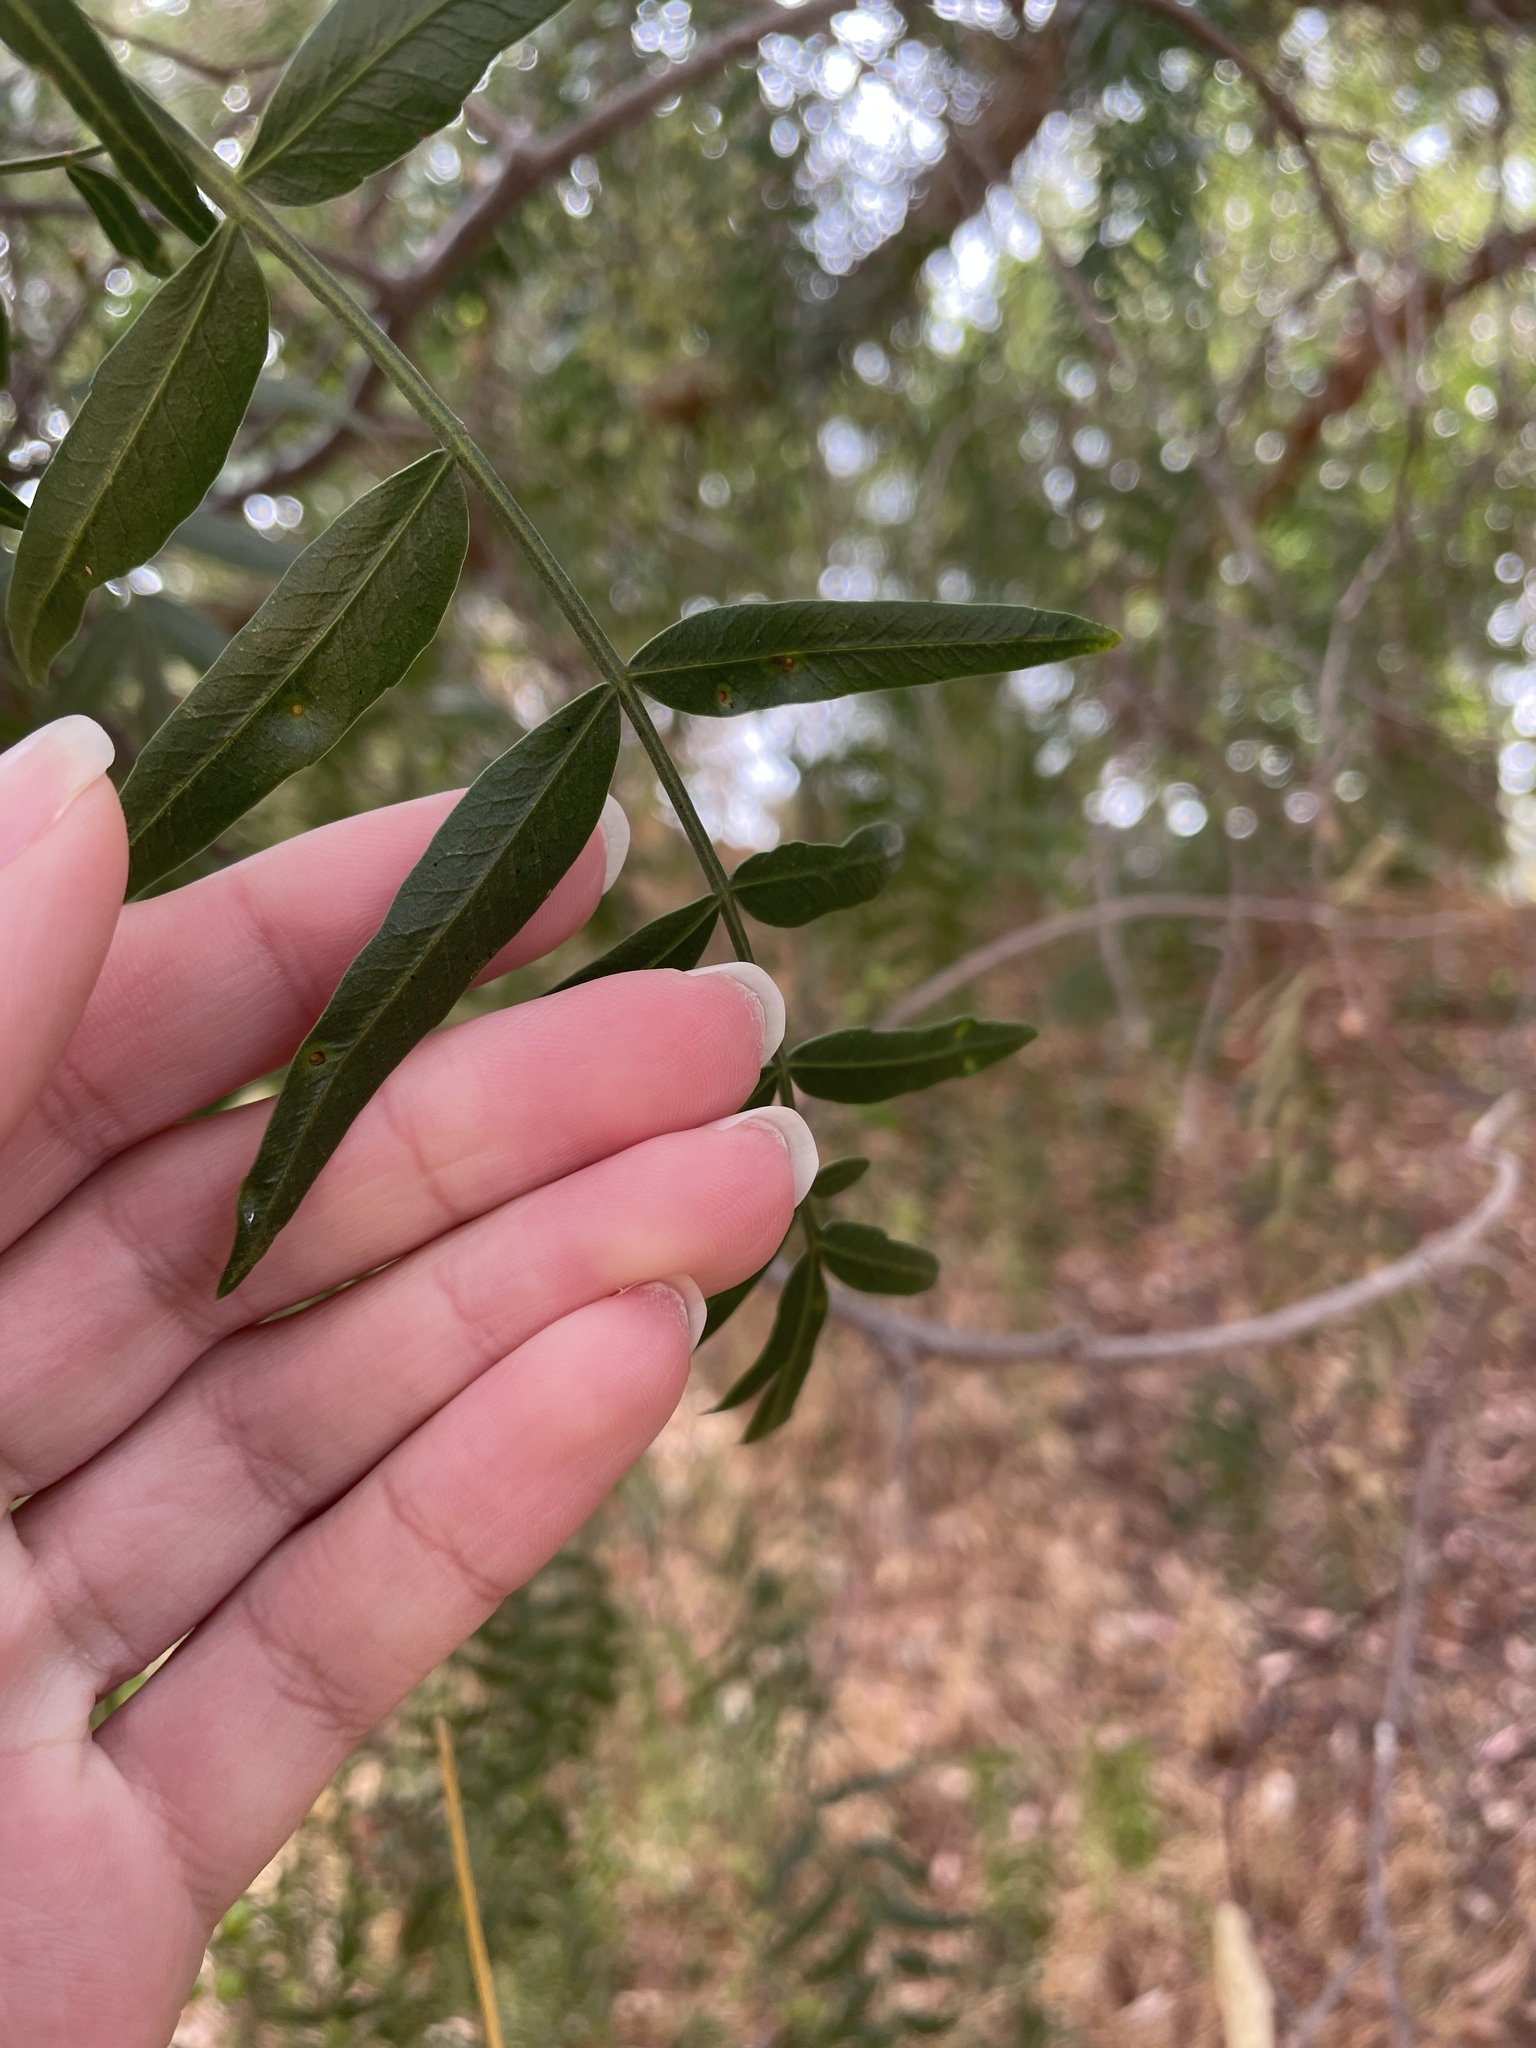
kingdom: Animalia
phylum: Arthropoda
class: Insecta
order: Hemiptera
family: Calophyidae
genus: Calophya
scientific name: Calophya schini
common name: Pepper tree psyllid
